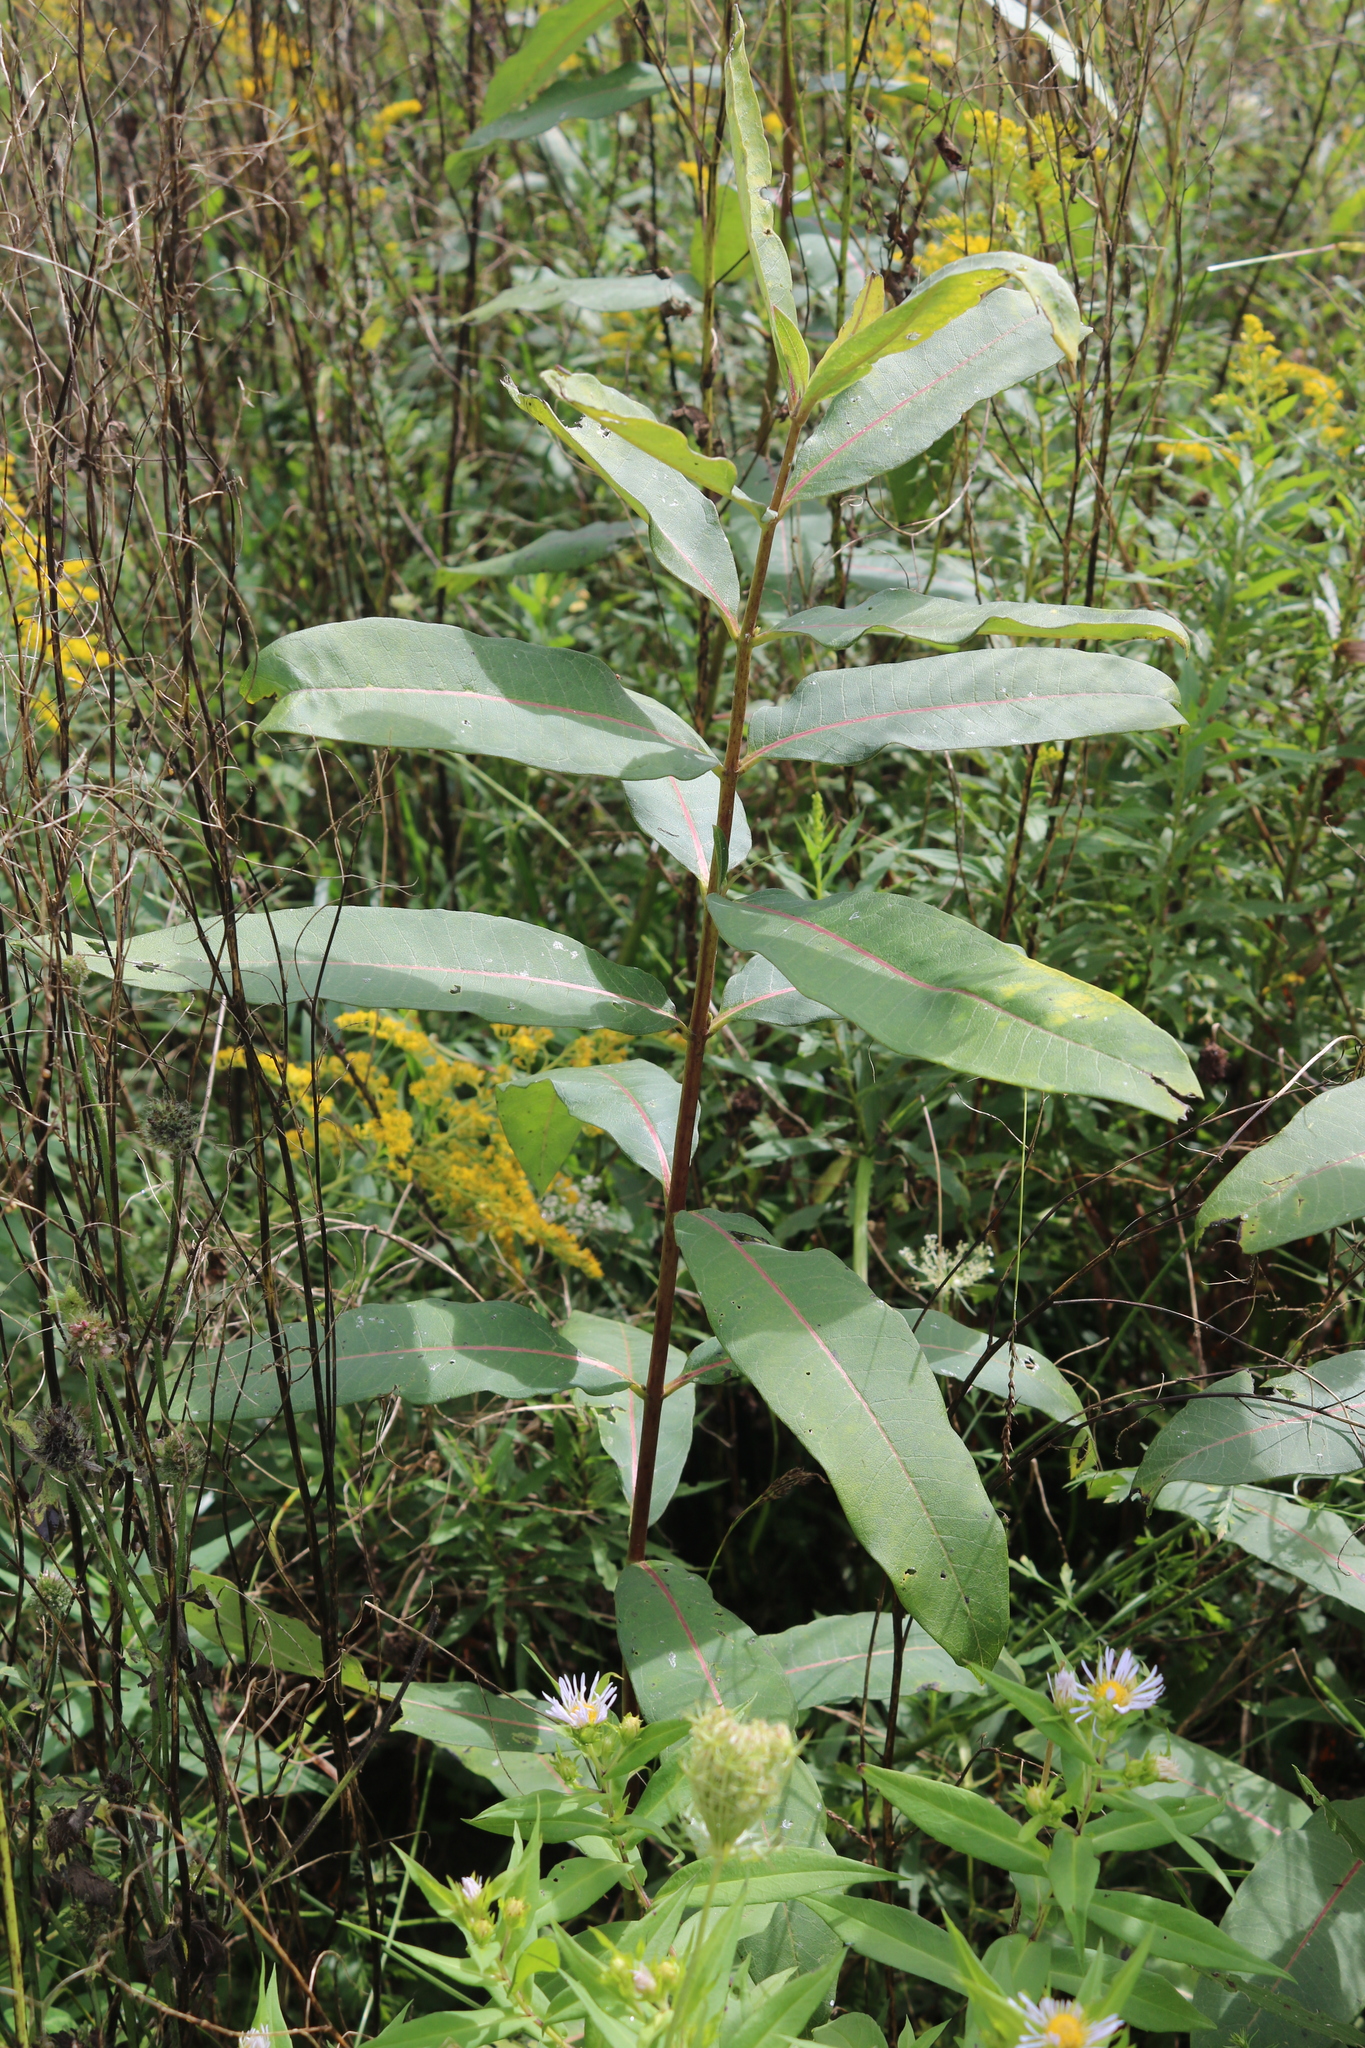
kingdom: Plantae
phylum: Tracheophyta
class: Magnoliopsida
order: Gentianales
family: Apocynaceae
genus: Asclepias
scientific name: Asclepias syriaca
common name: Common milkweed
